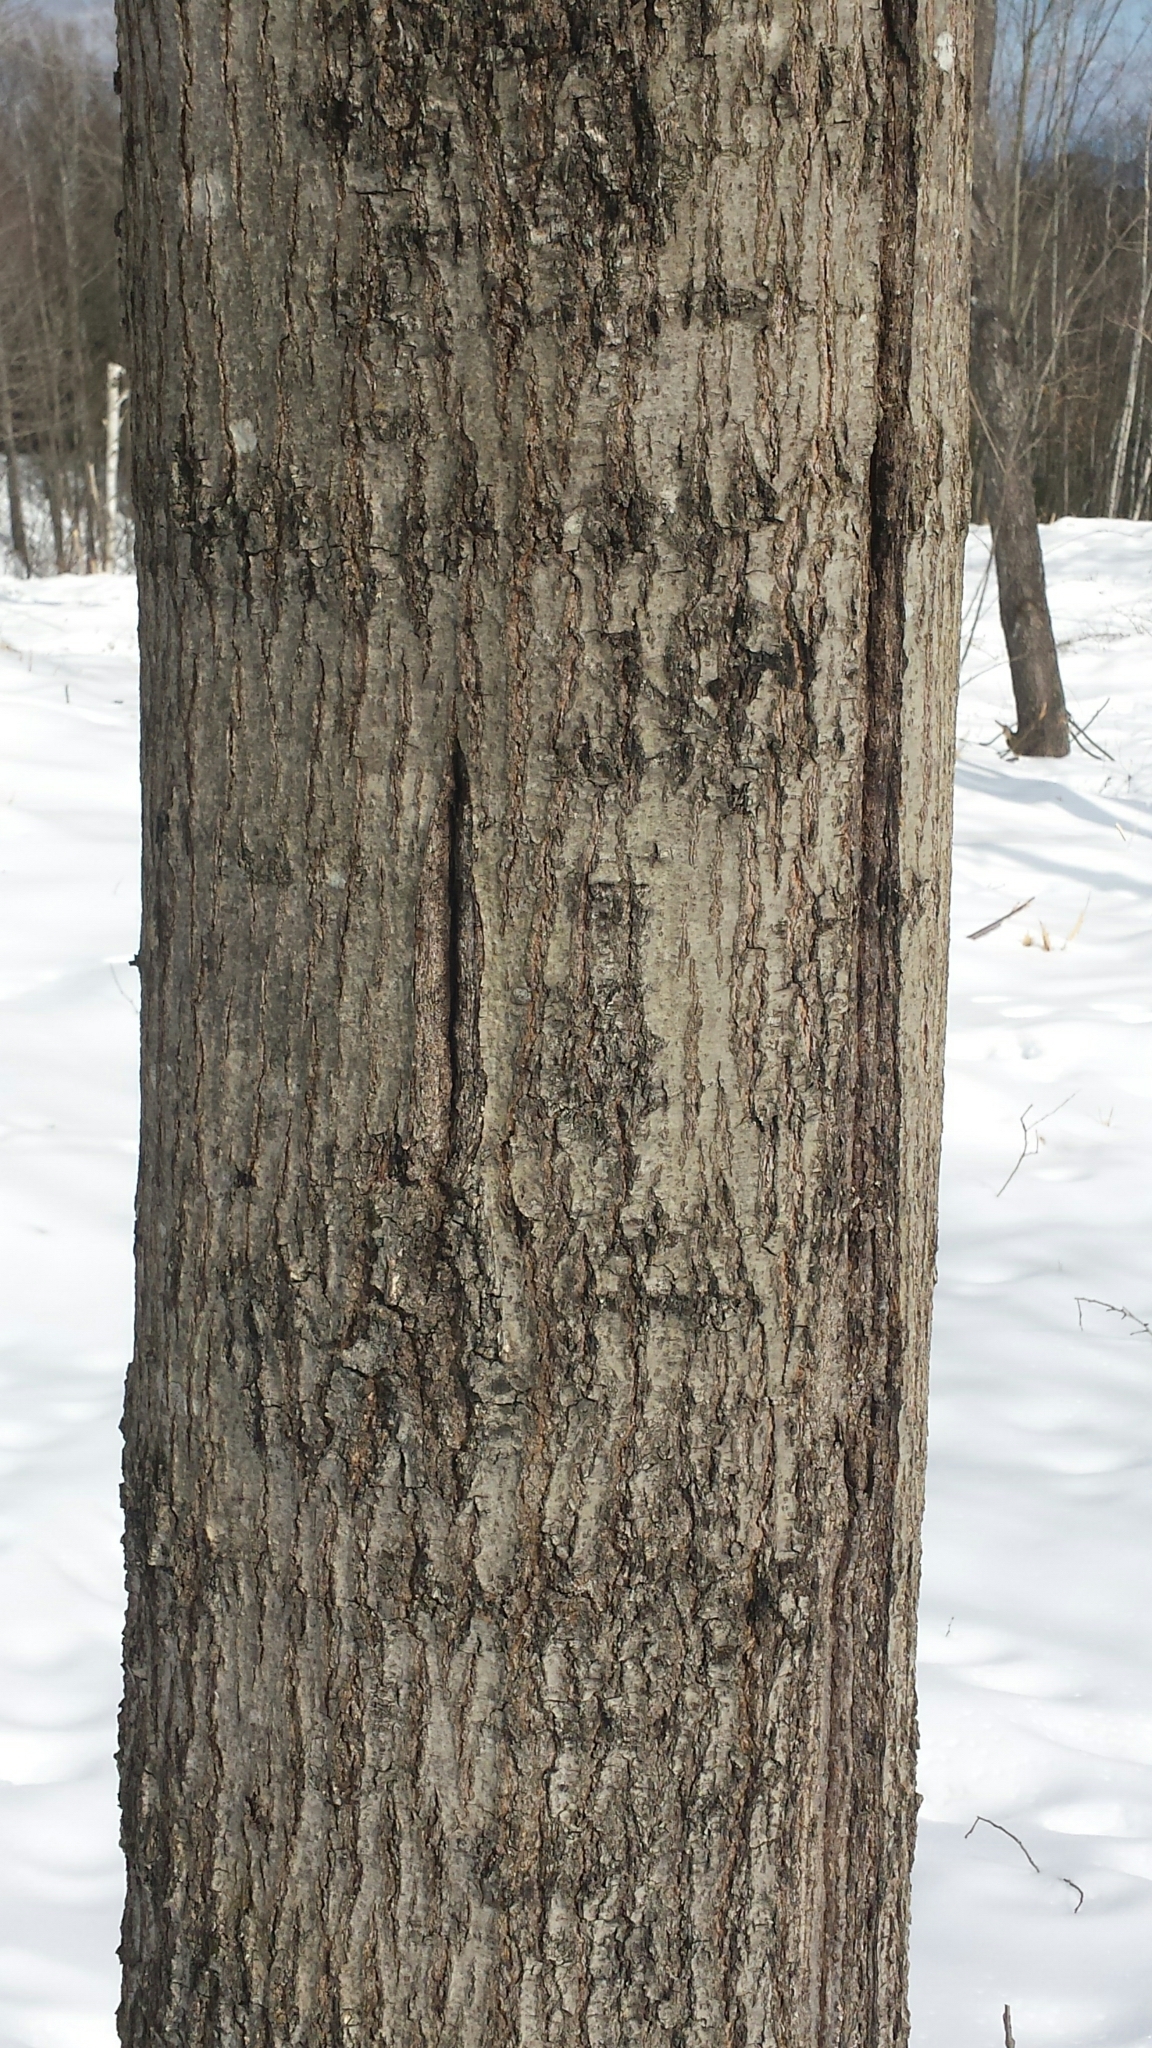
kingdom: Plantae
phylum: Tracheophyta
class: Magnoliopsida
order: Fagales
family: Fagaceae
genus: Quercus
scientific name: Quercus rubra
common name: Red oak
